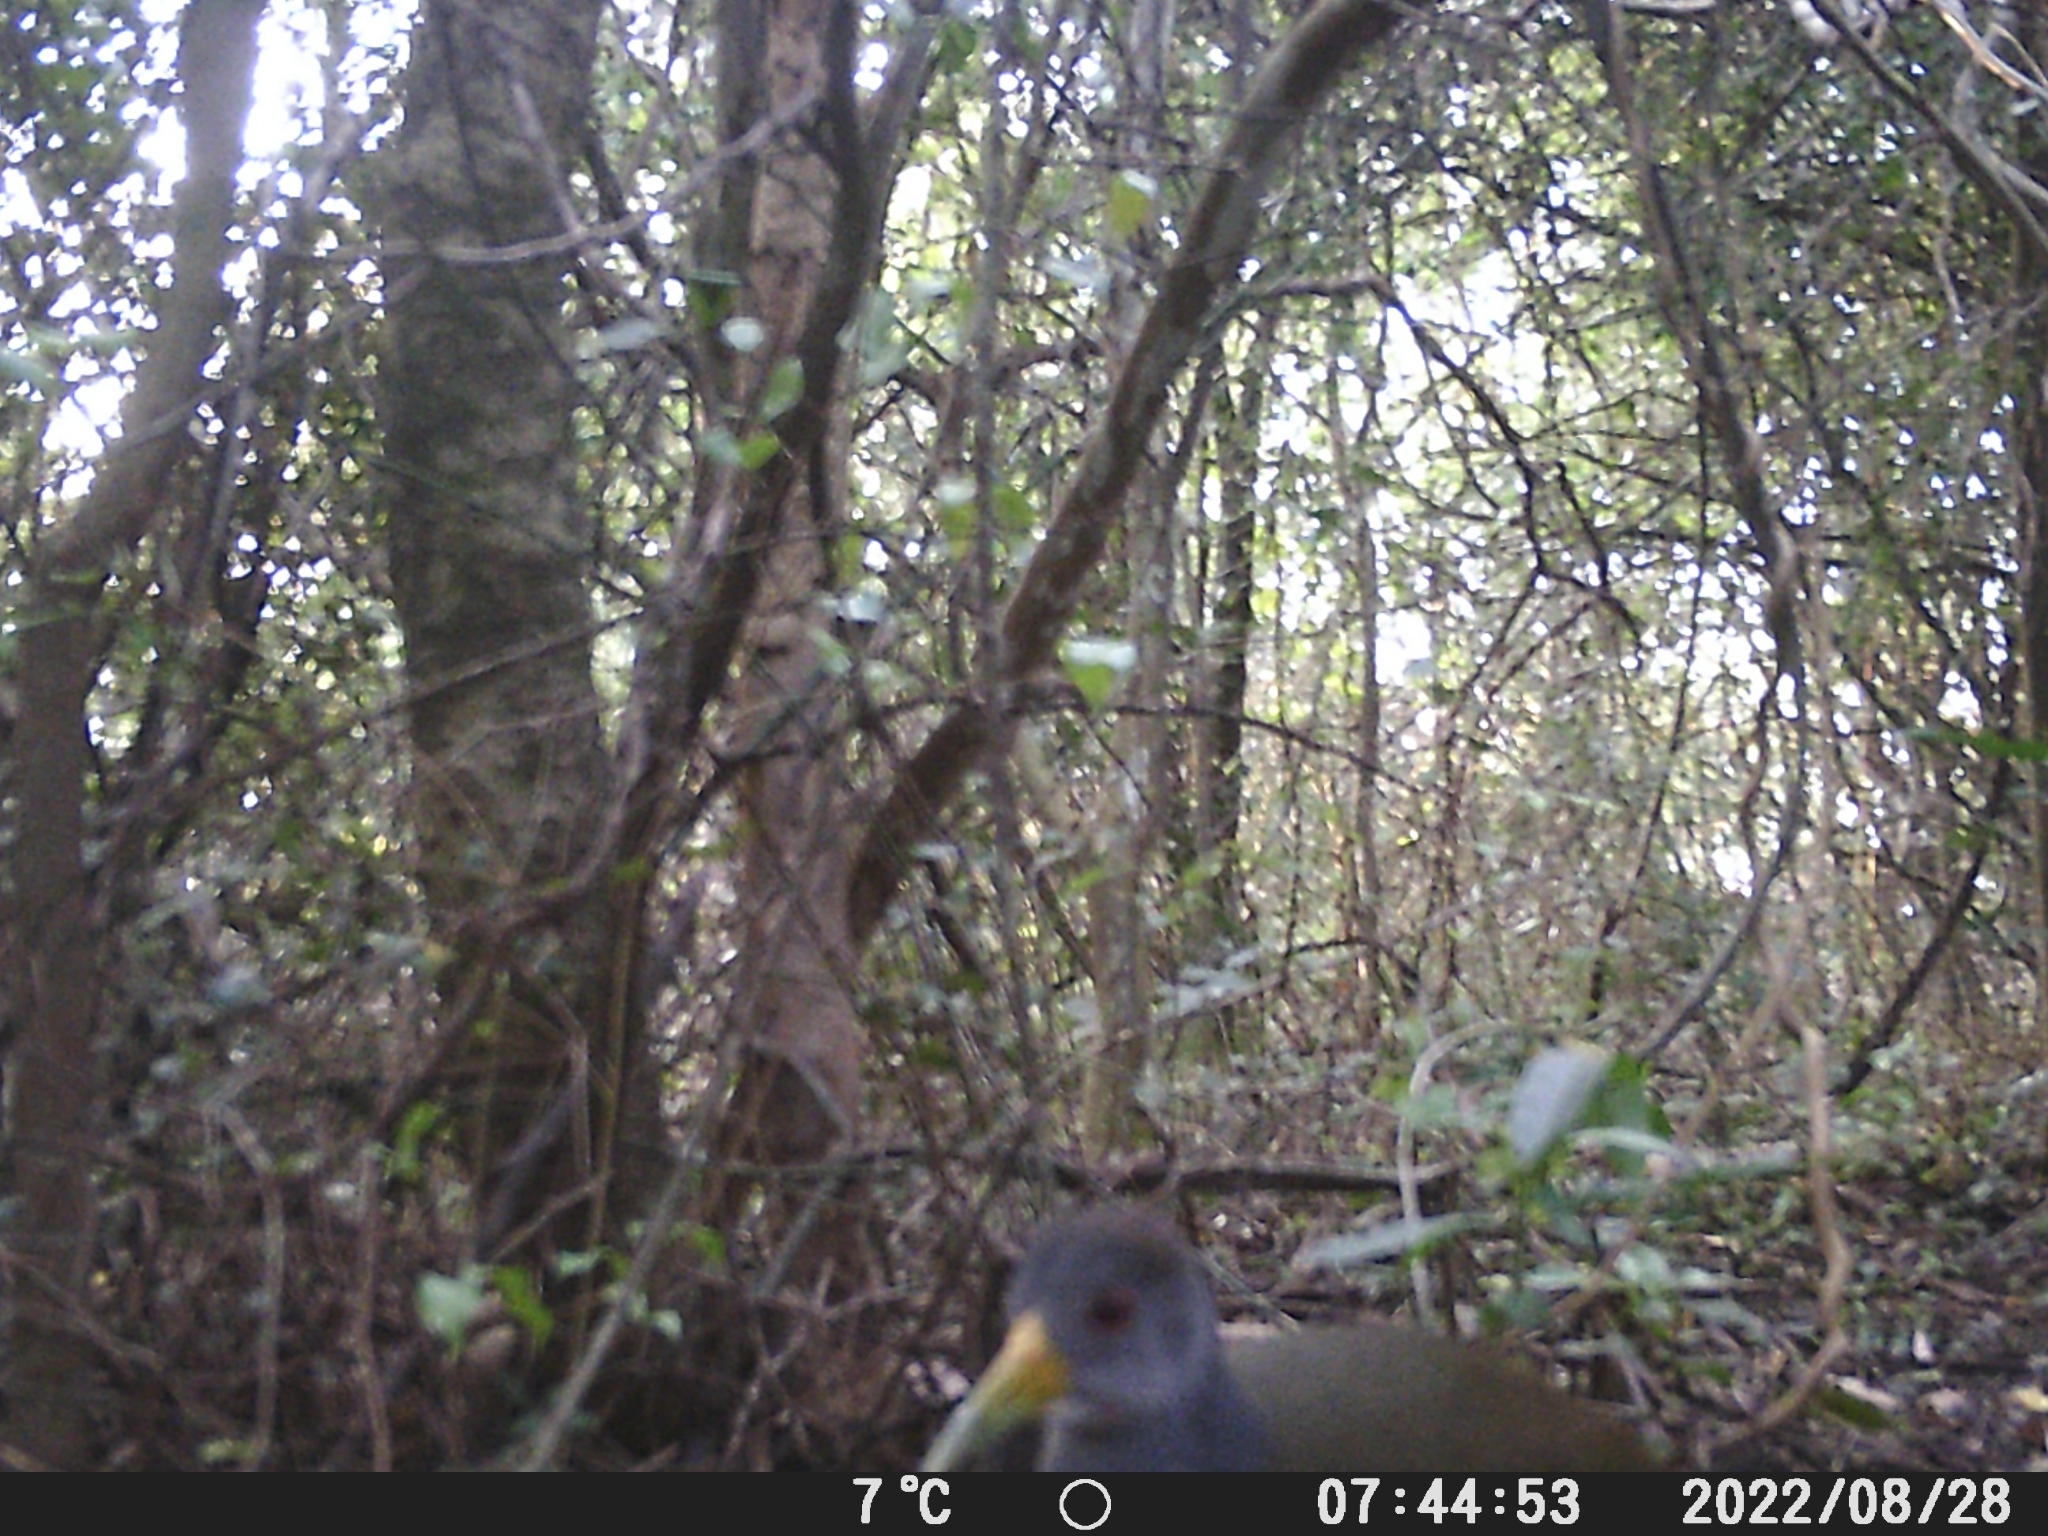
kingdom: Animalia
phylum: Chordata
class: Aves
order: Gruiformes
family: Rallidae
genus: Aramides
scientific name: Aramides cajanea
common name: Gray-necked wood-rail
